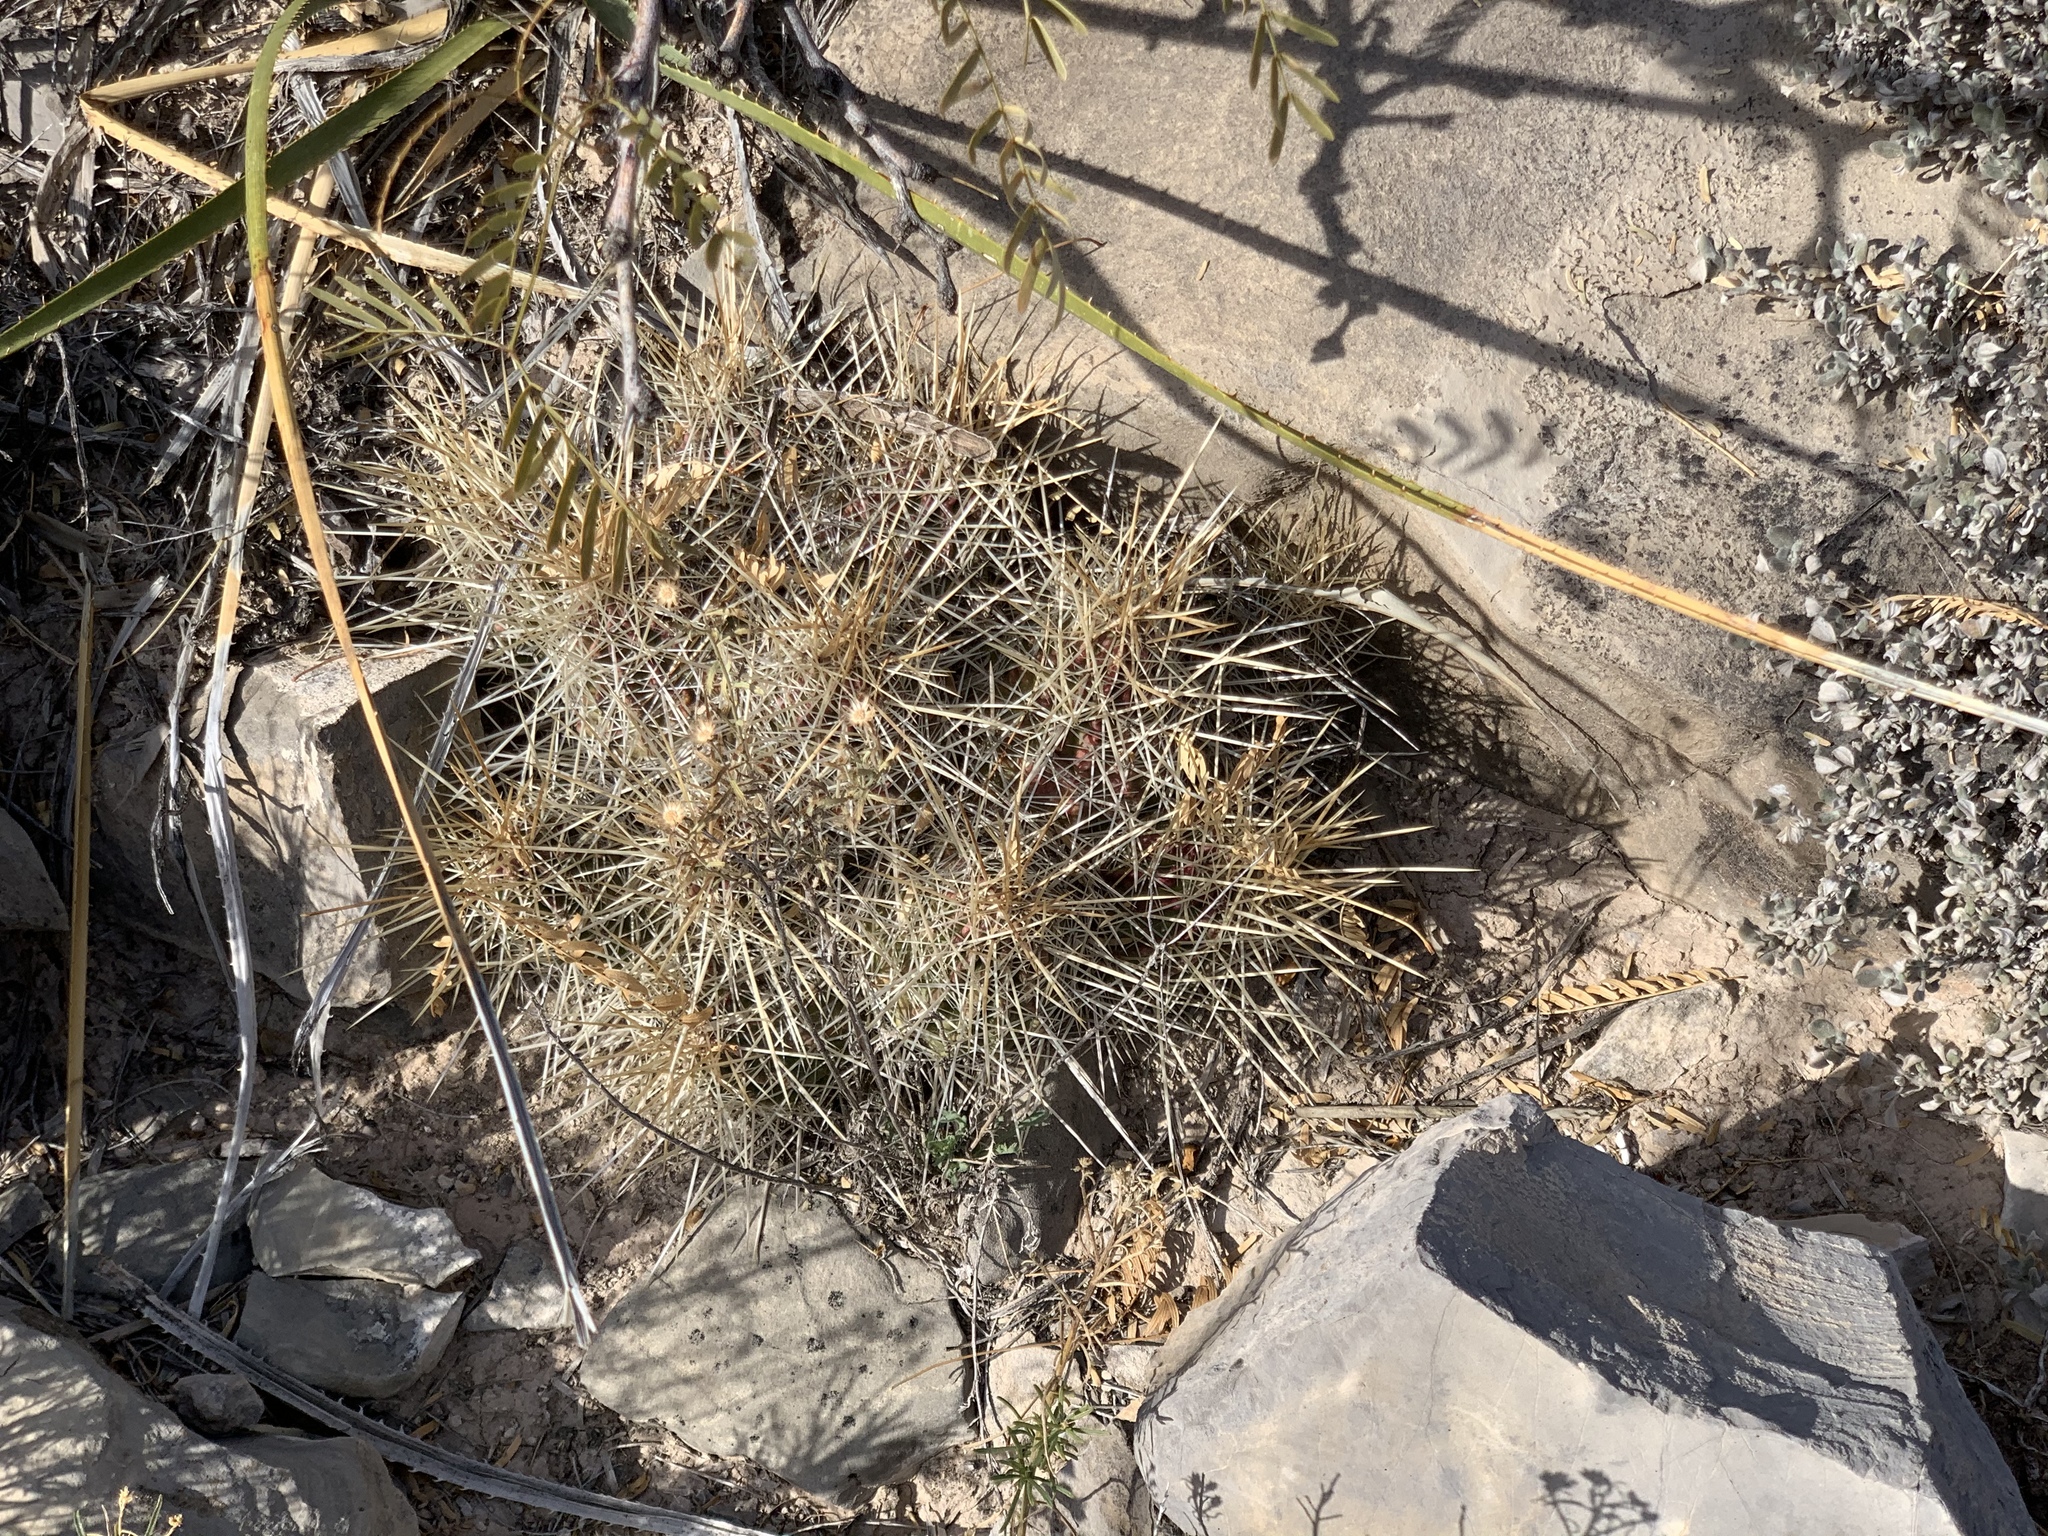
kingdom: Plantae
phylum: Tracheophyta
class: Magnoliopsida
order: Caryophyllales
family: Cactaceae
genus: Echinocereus
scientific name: Echinocereus stramineus
